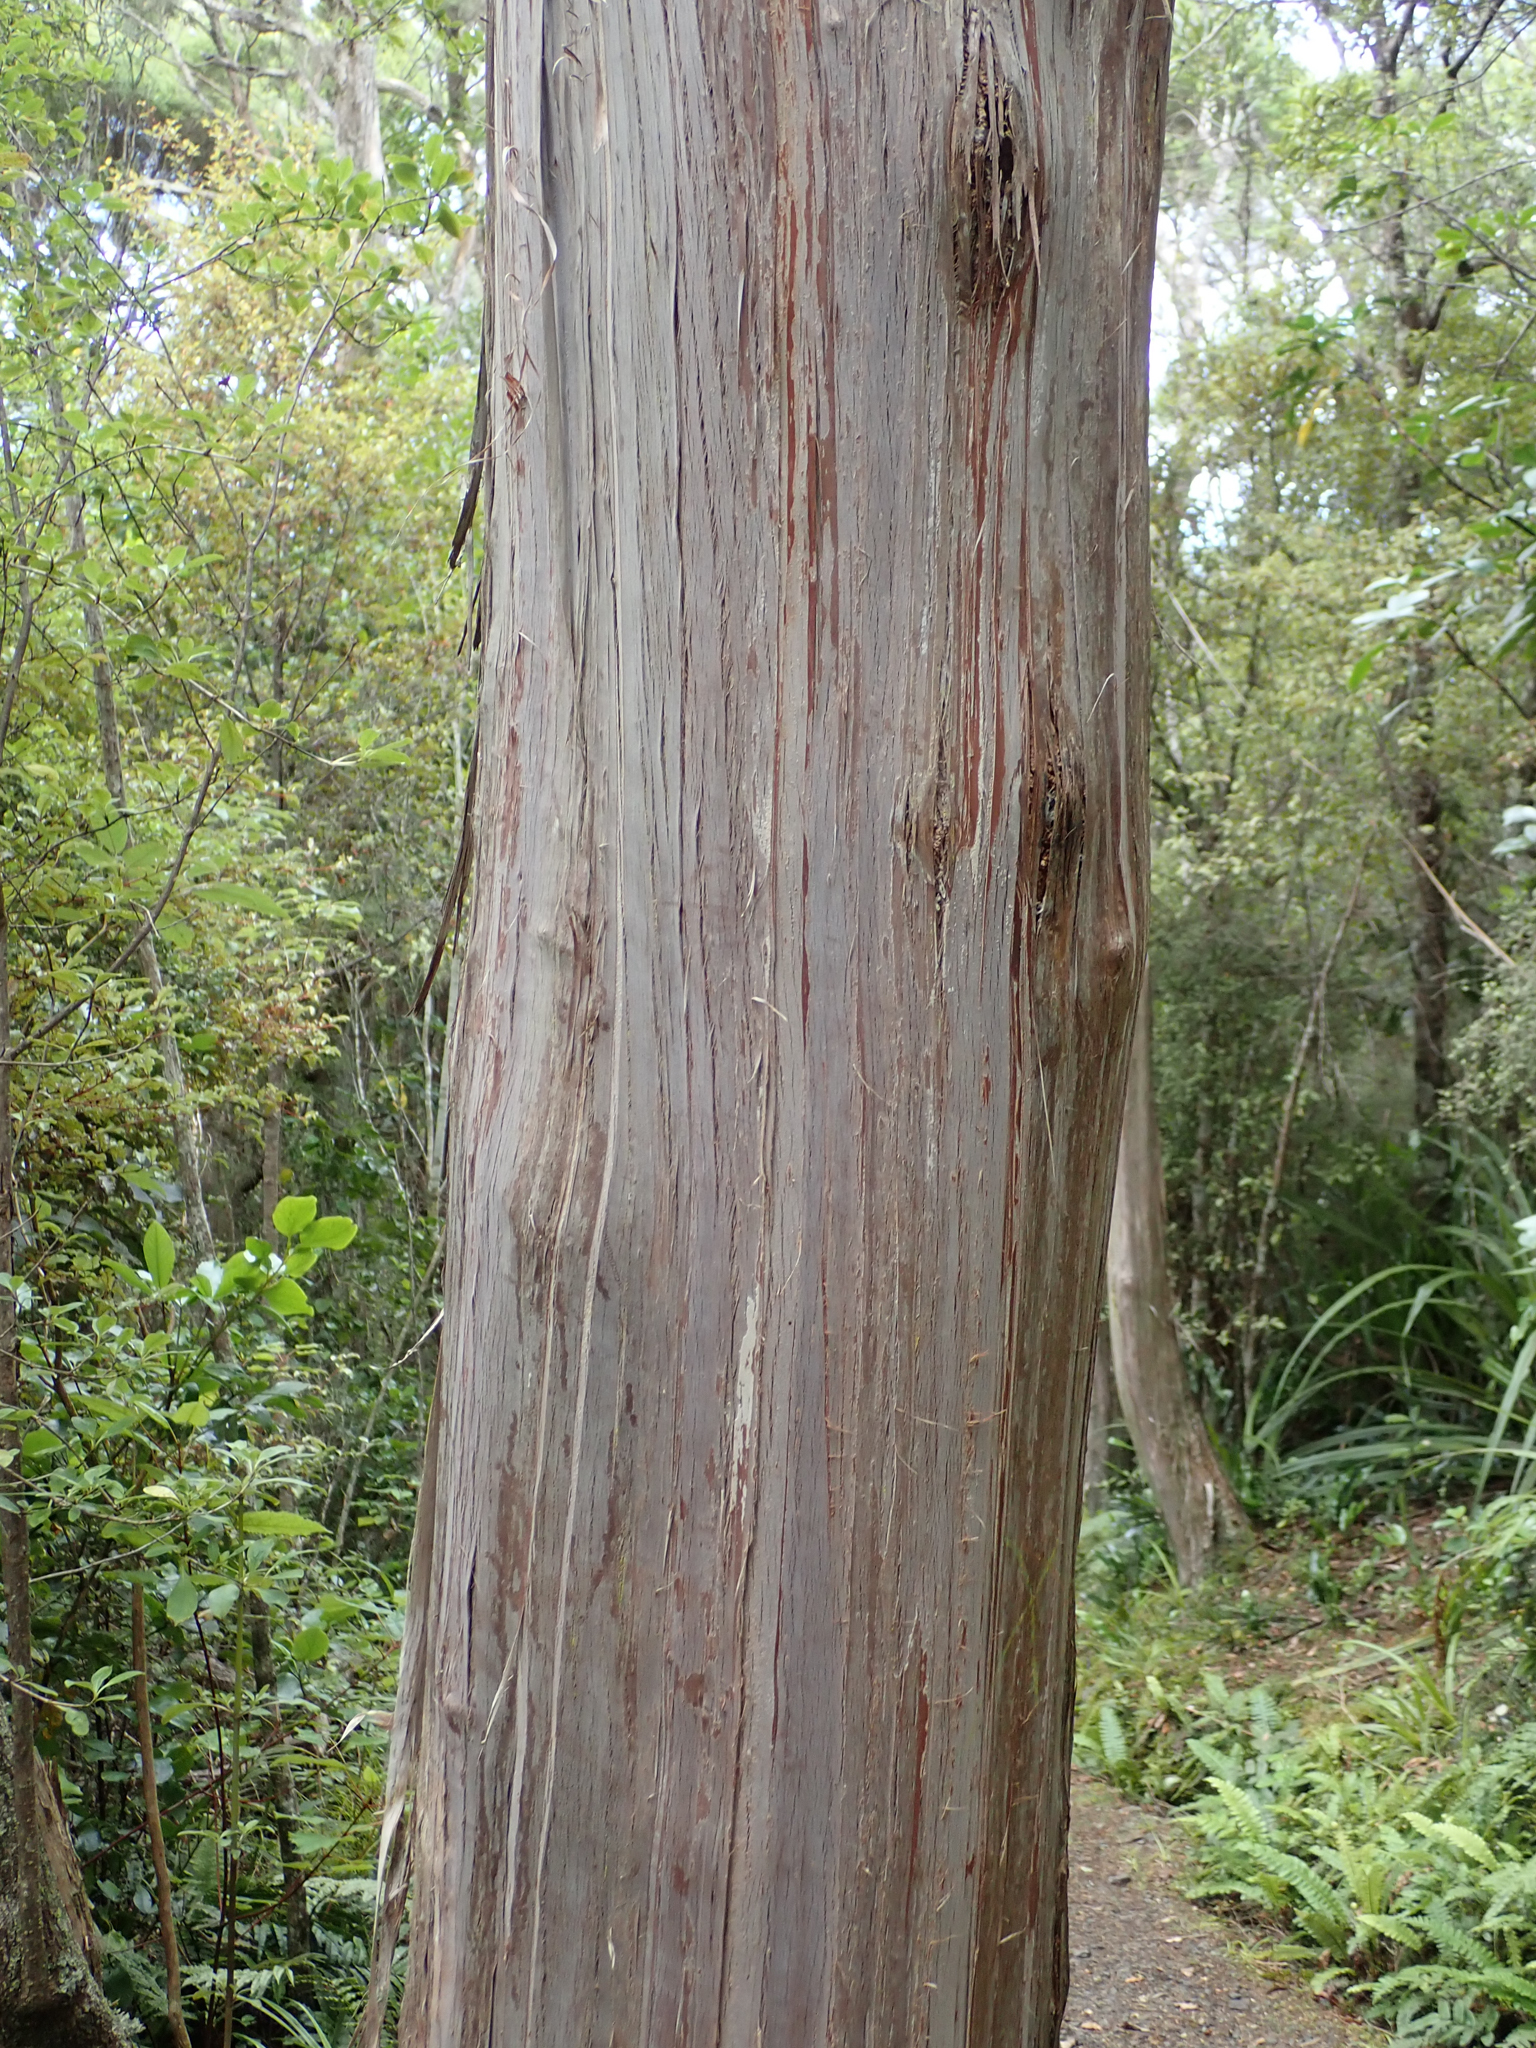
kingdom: Plantae
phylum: Tracheophyta
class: Pinopsida
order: Pinales
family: Cupressaceae
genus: Libocedrus
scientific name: Libocedrus bidwillii
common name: Cedar
